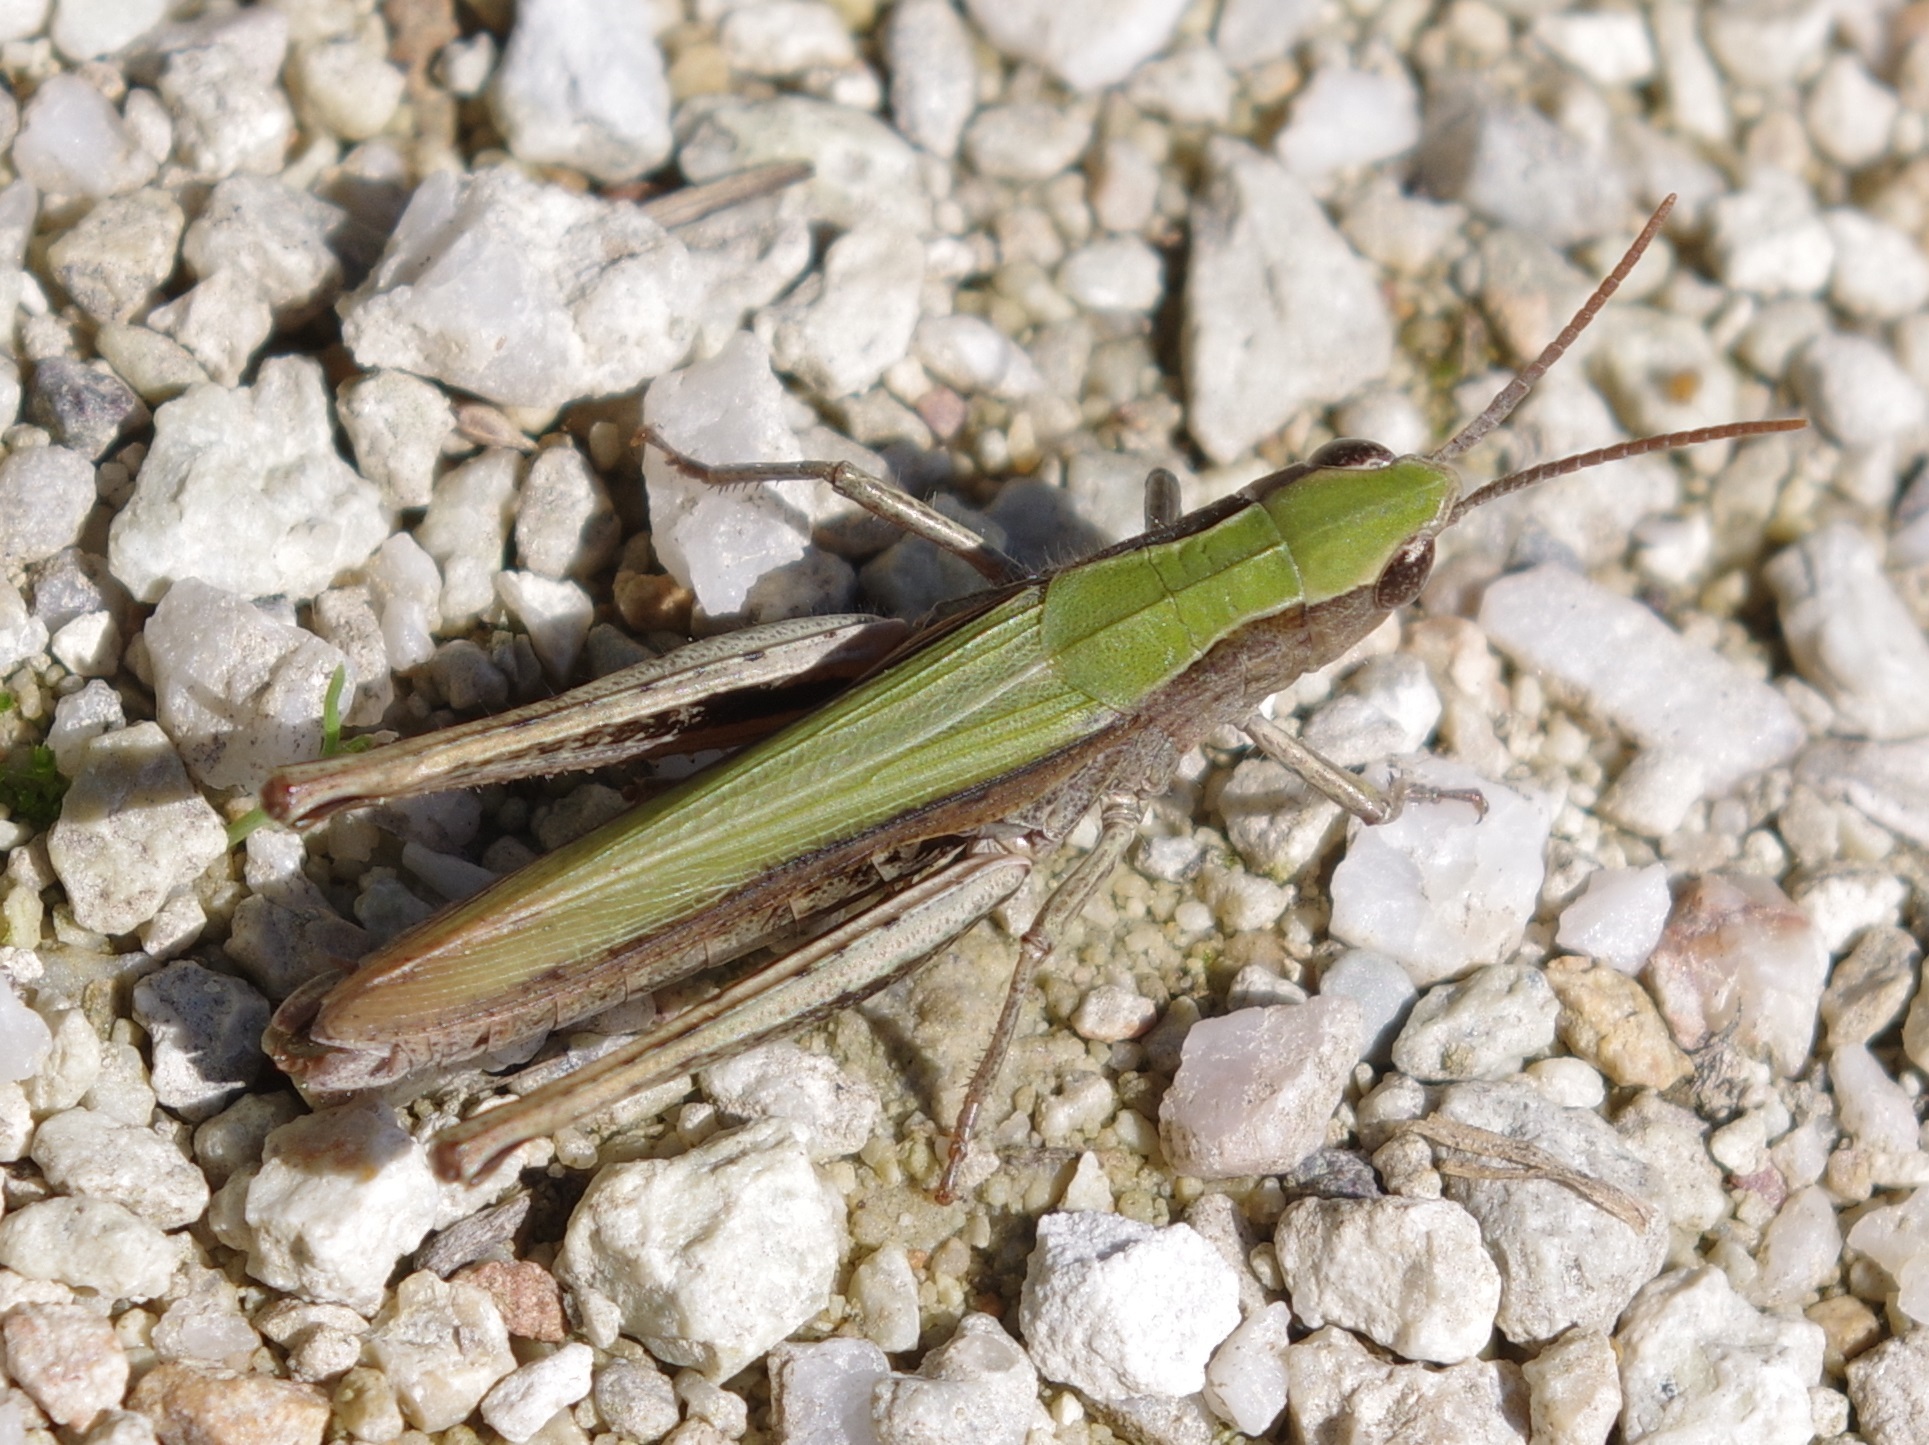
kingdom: Animalia
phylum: Arthropoda
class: Insecta
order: Orthoptera
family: Acrididae
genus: Chorthippus
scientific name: Chorthippus dorsatus
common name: Steppe grasshopper
